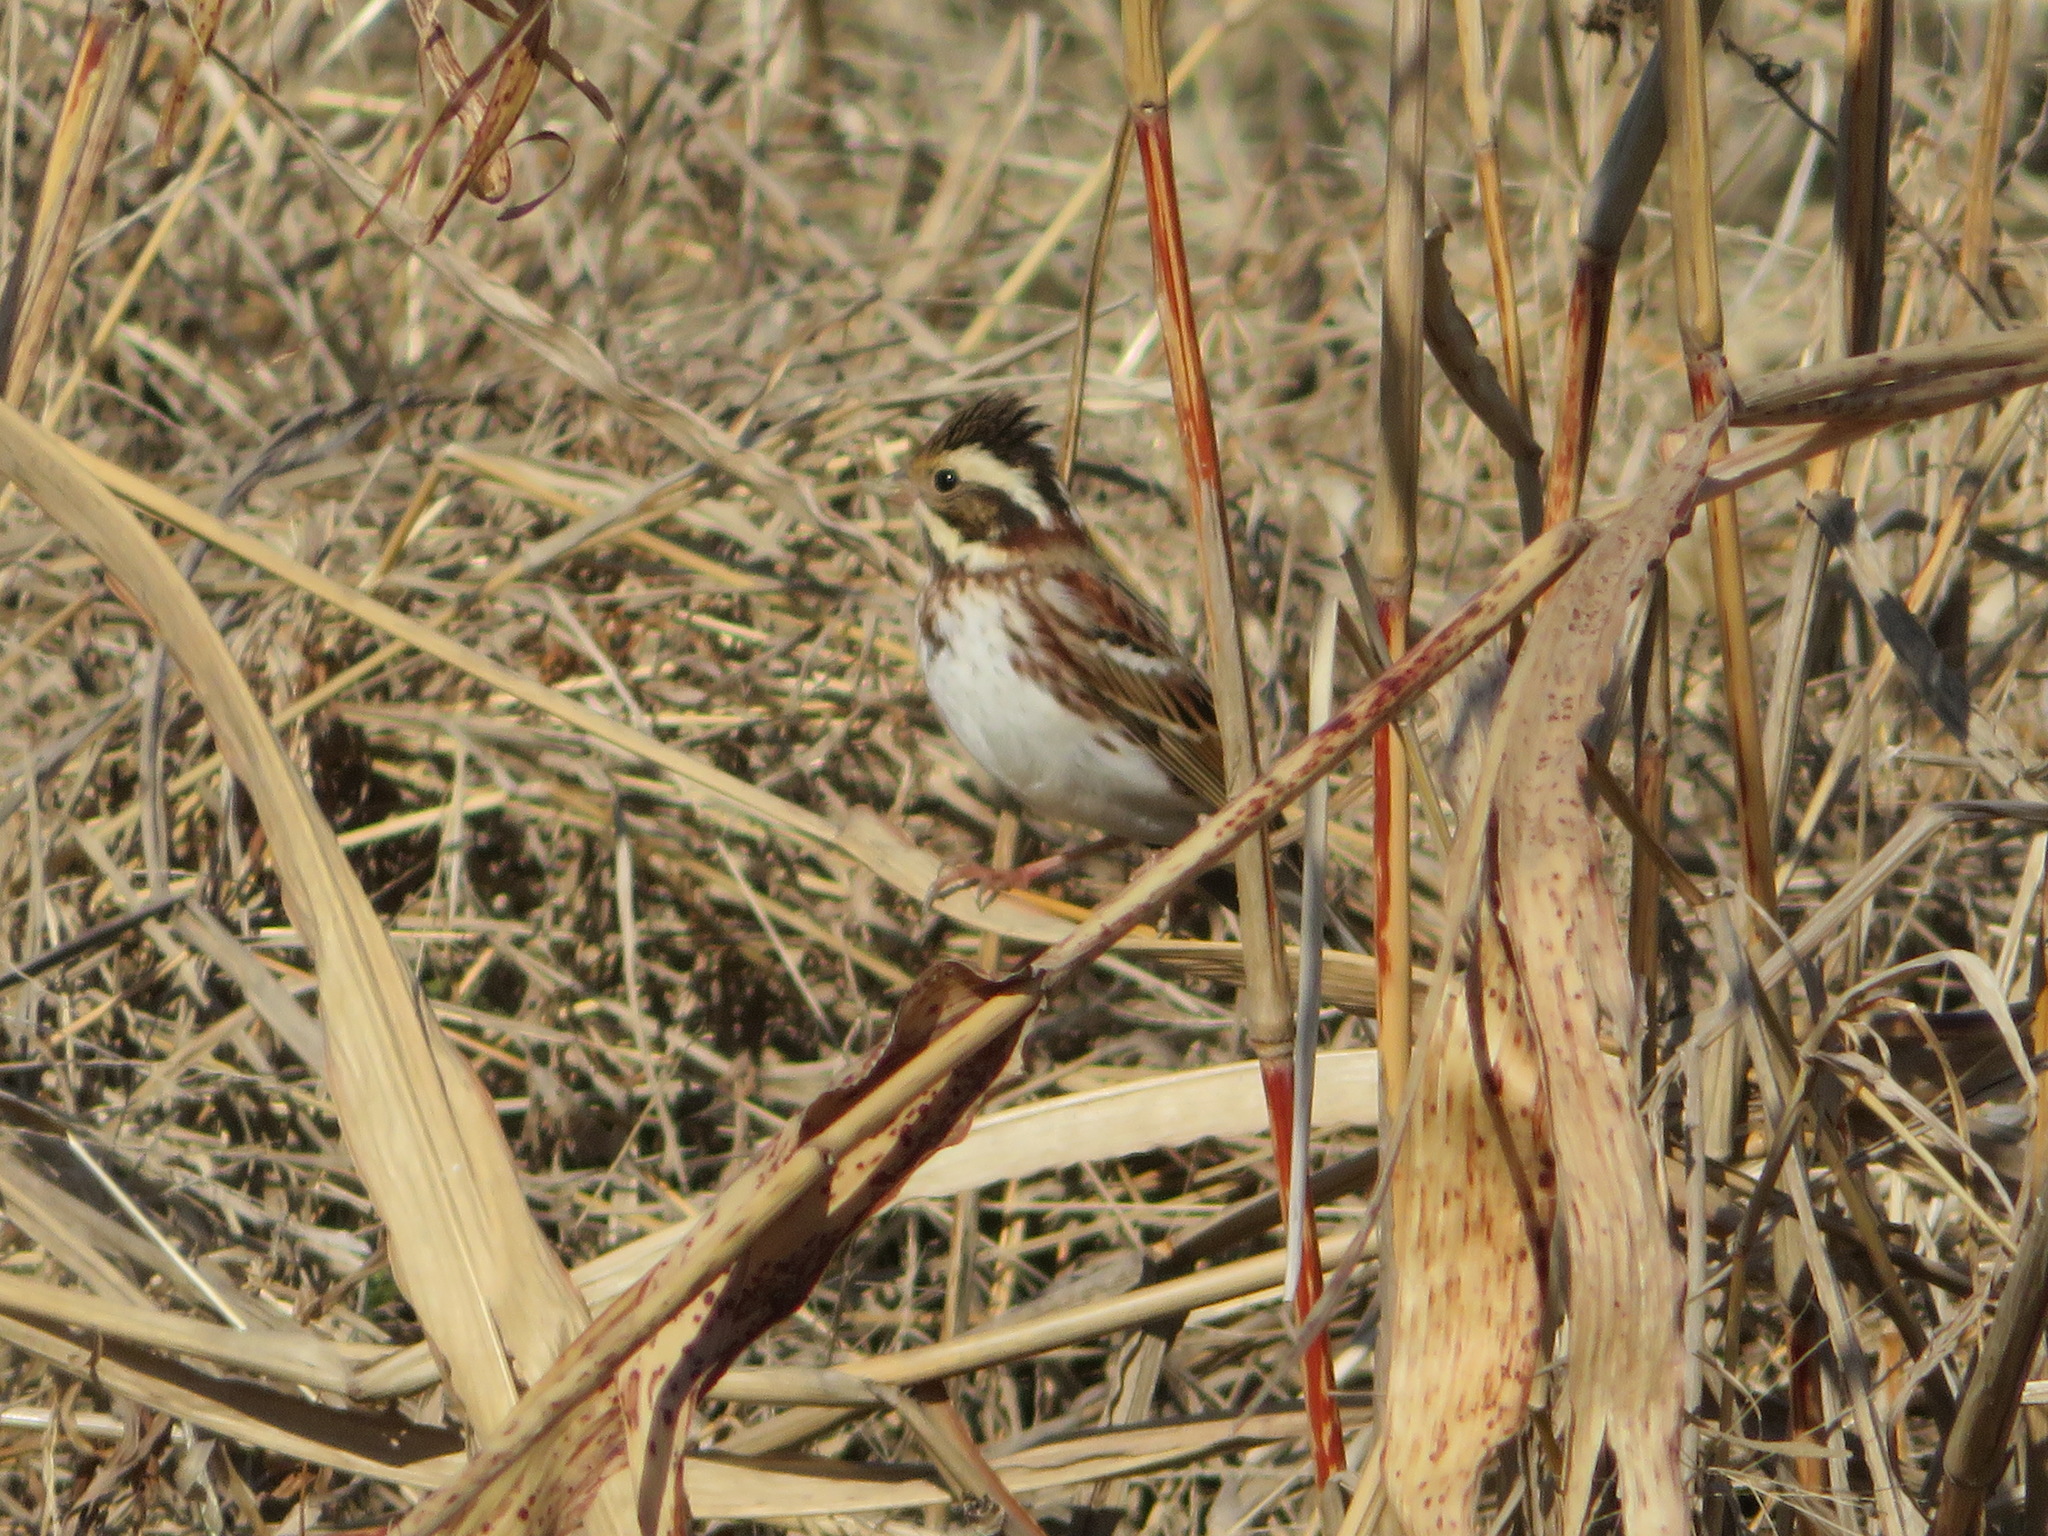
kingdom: Animalia
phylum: Chordata
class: Aves
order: Passeriformes
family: Emberizidae
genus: Emberiza
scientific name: Emberiza rustica
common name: Rustic bunting
